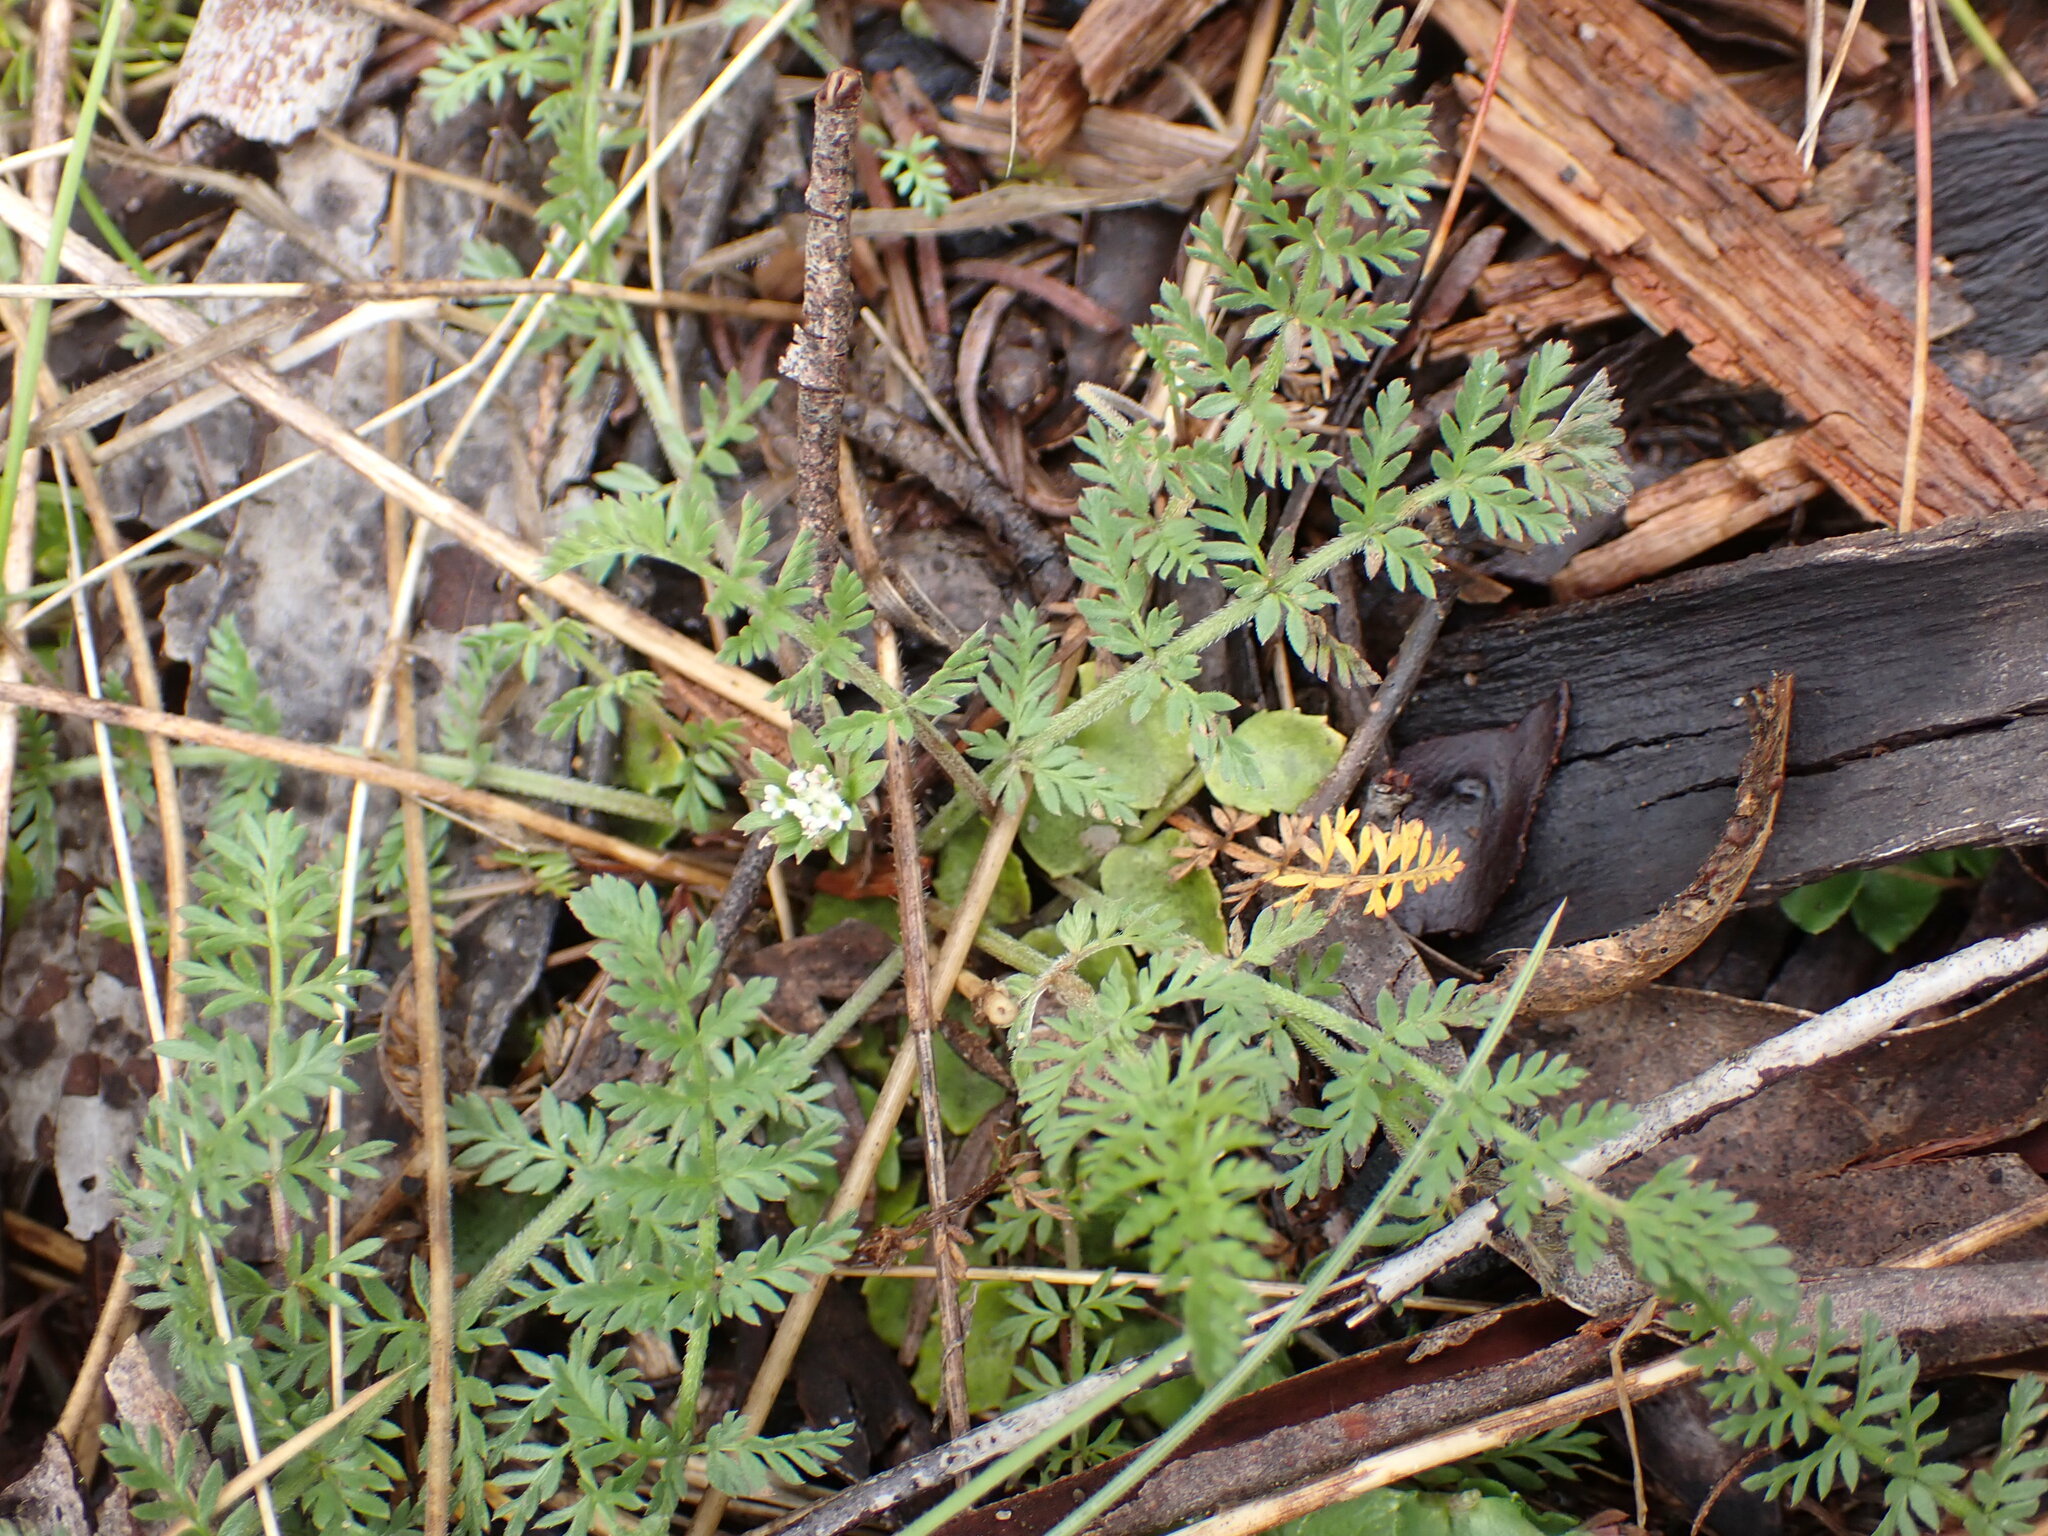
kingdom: Plantae
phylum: Tracheophyta
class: Magnoliopsida
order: Apiales
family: Apiaceae
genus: Chaerophyllum
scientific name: Chaerophyllum eriopodum
